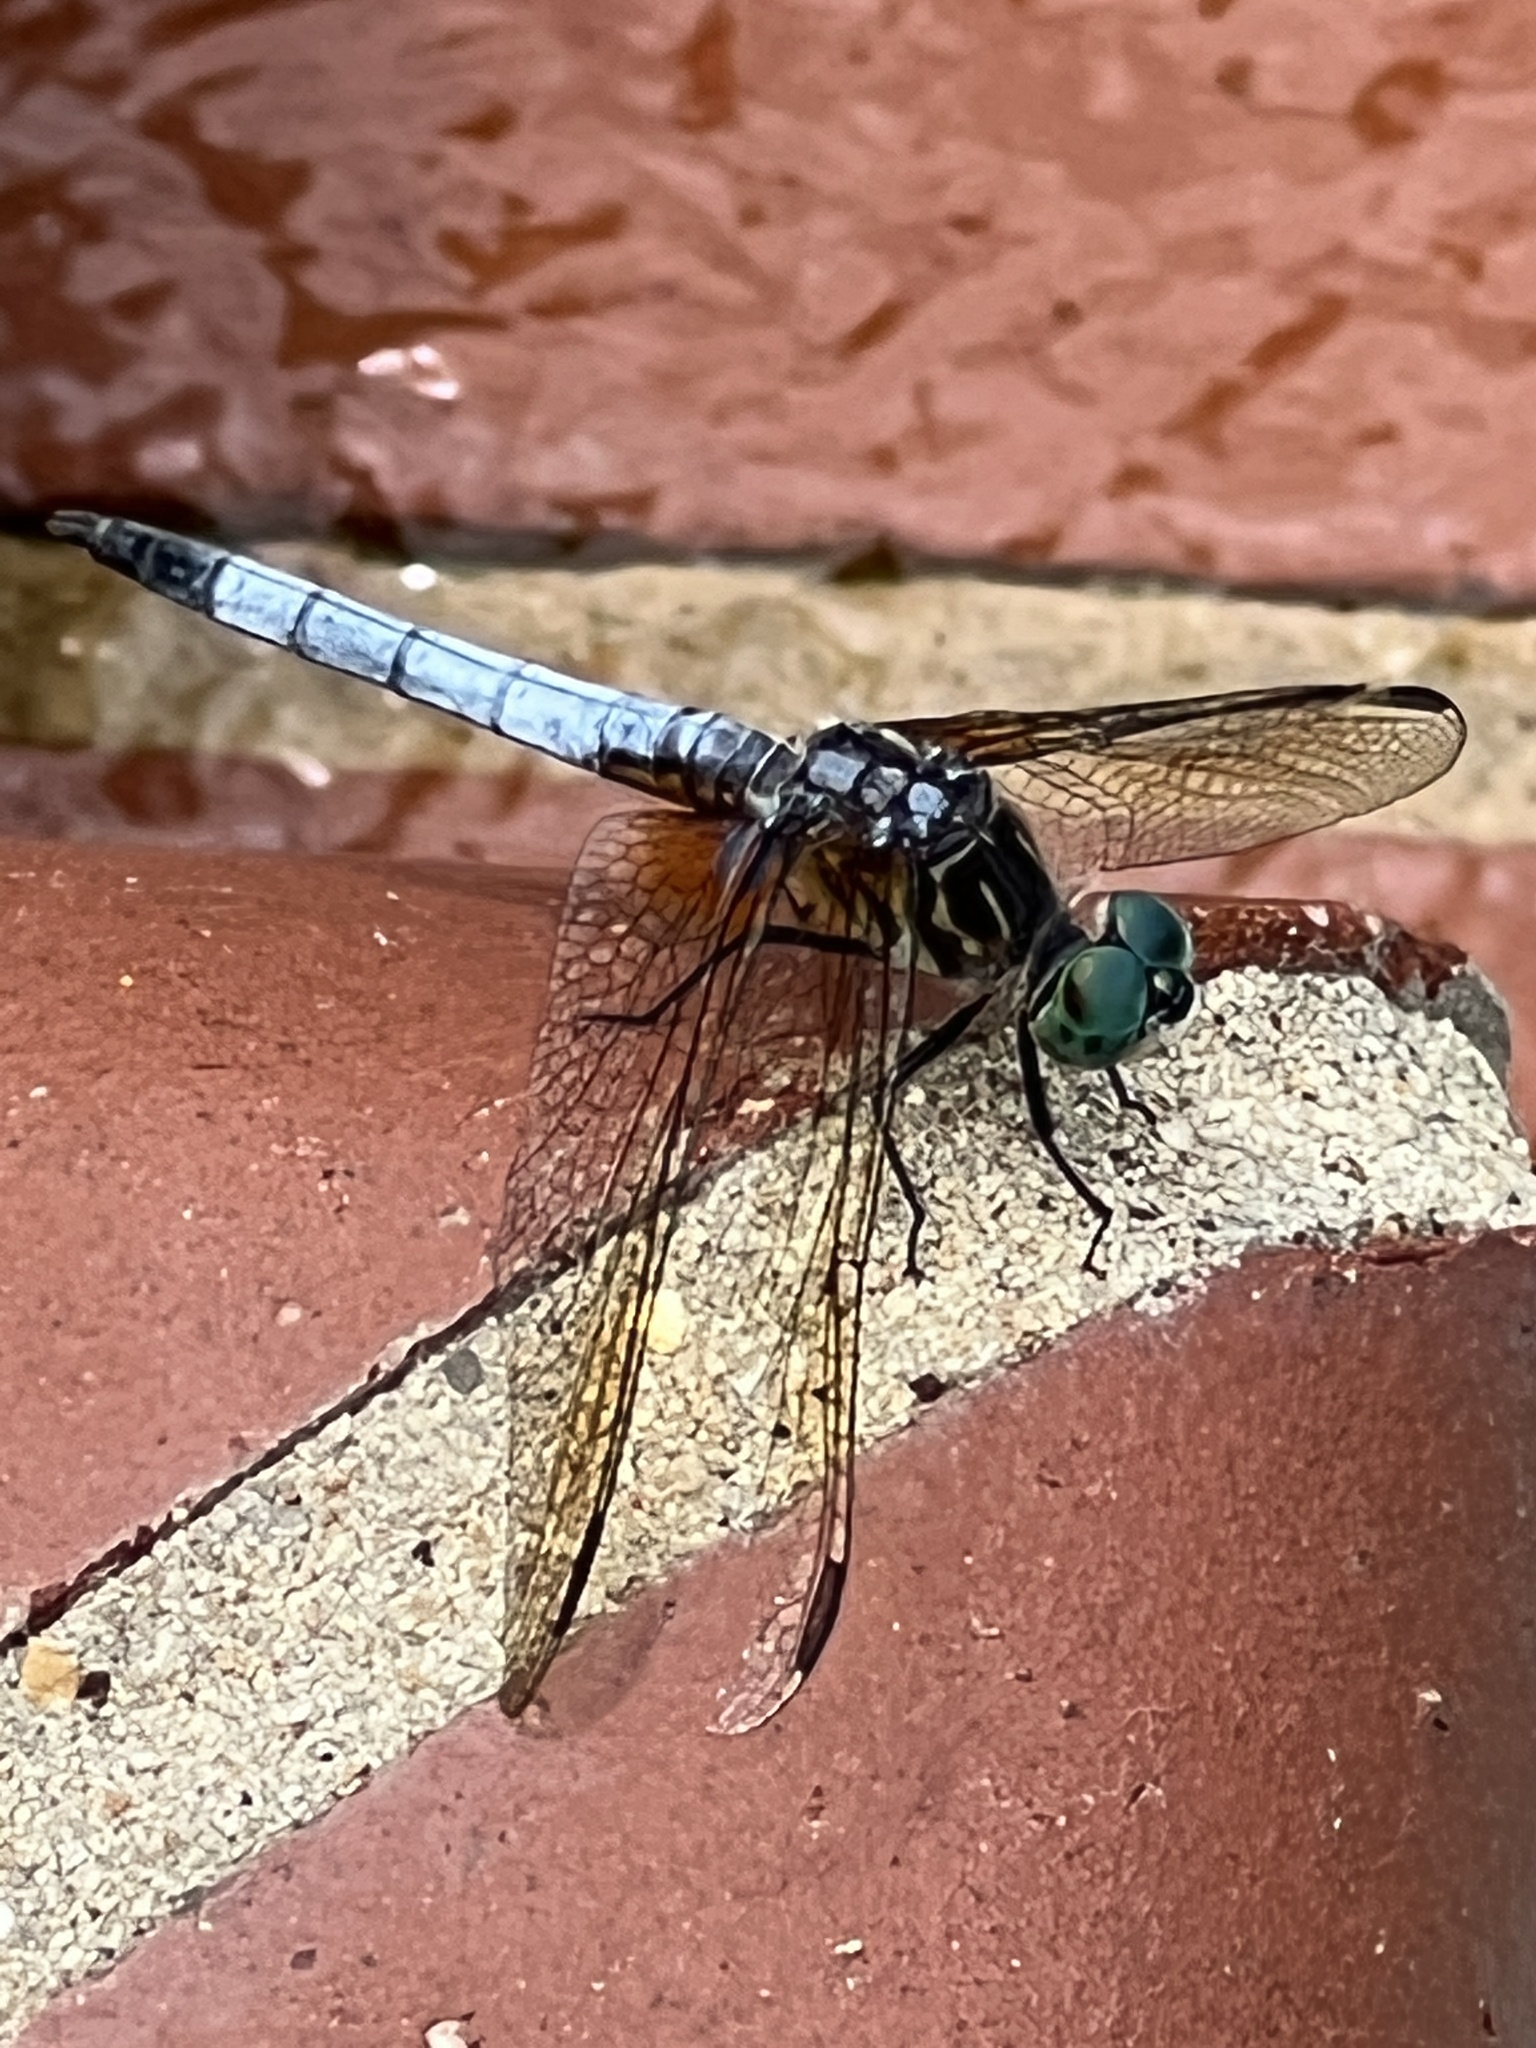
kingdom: Animalia
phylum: Arthropoda
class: Insecta
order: Odonata
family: Libellulidae
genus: Pachydiplax
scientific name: Pachydiplax longipennis
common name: Blue dasher
